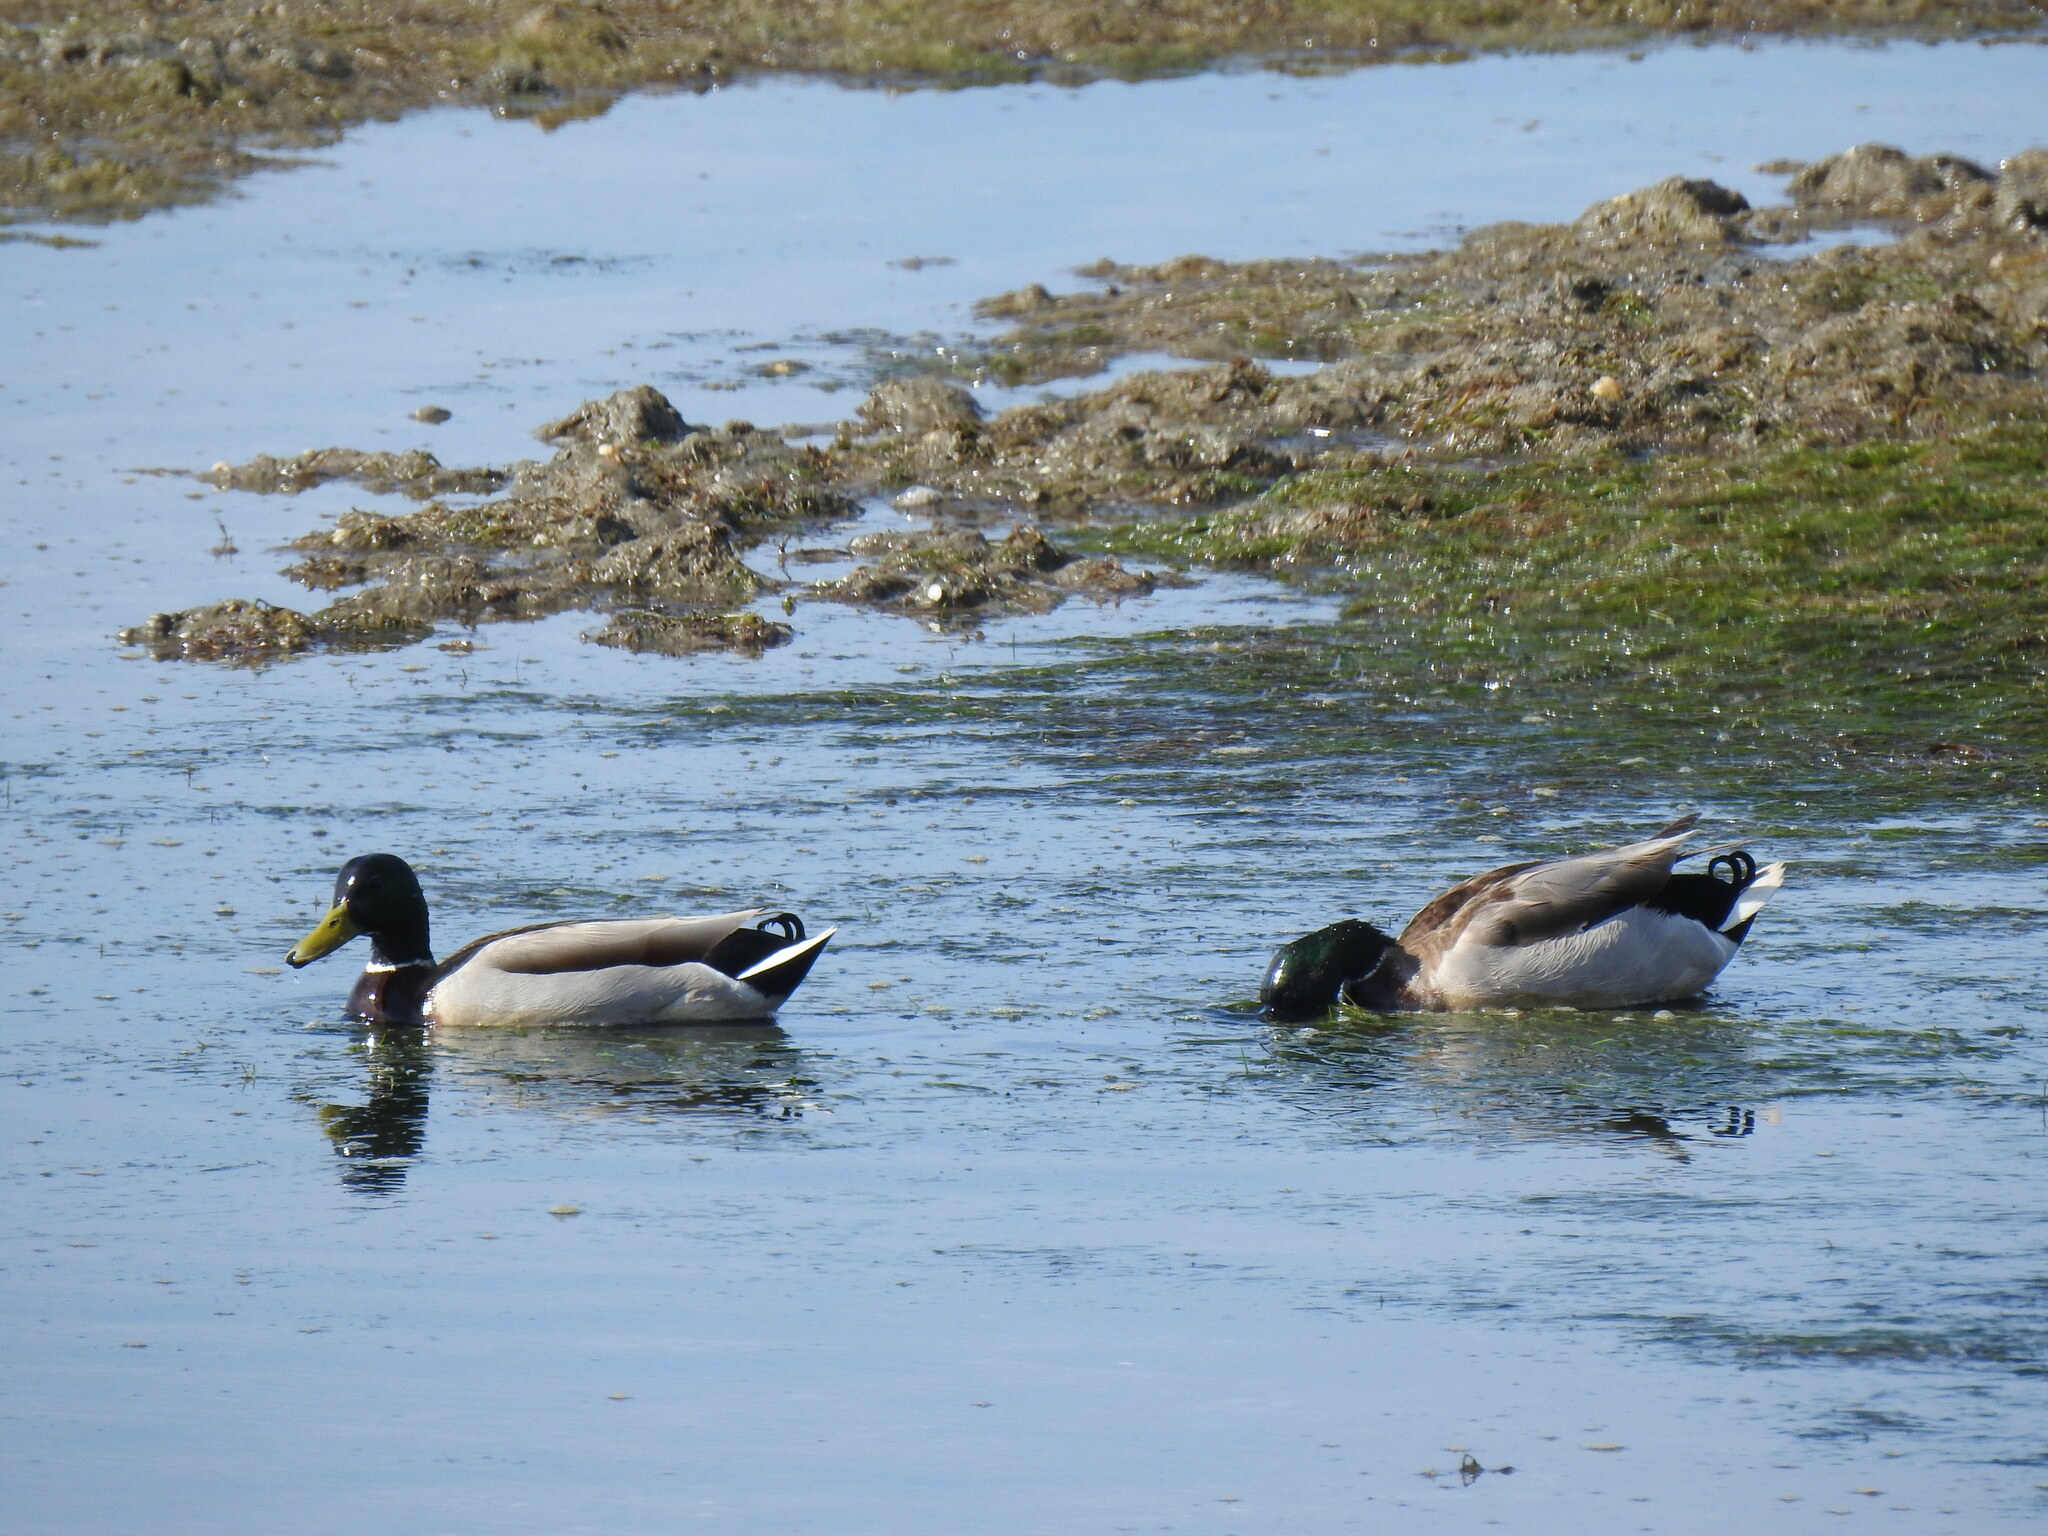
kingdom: Animalia
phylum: Chordata
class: Aves
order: Anseriformes
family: Anatidae
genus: Anas
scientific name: Anas platyrhynchos
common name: Mallard
